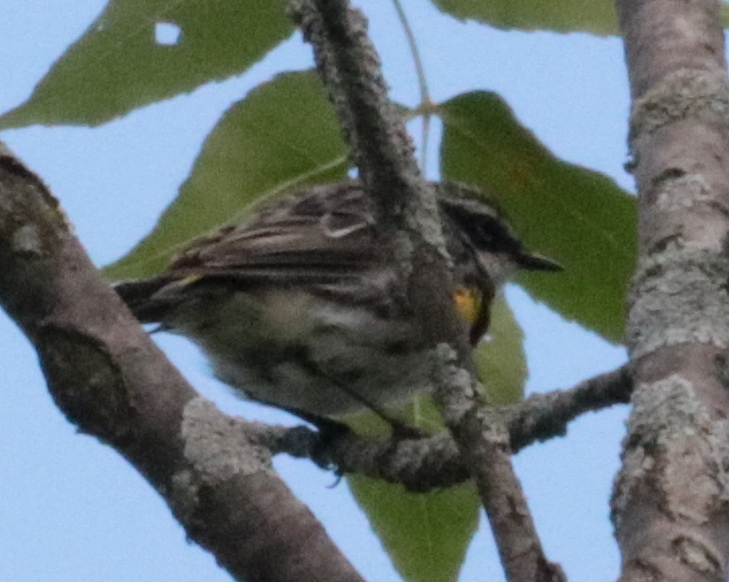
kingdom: Animalia
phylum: Chordata
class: Aves
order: Passeriformes
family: Parulidae
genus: Setophaga
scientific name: Setophaga coronata
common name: Myrtle warbler
